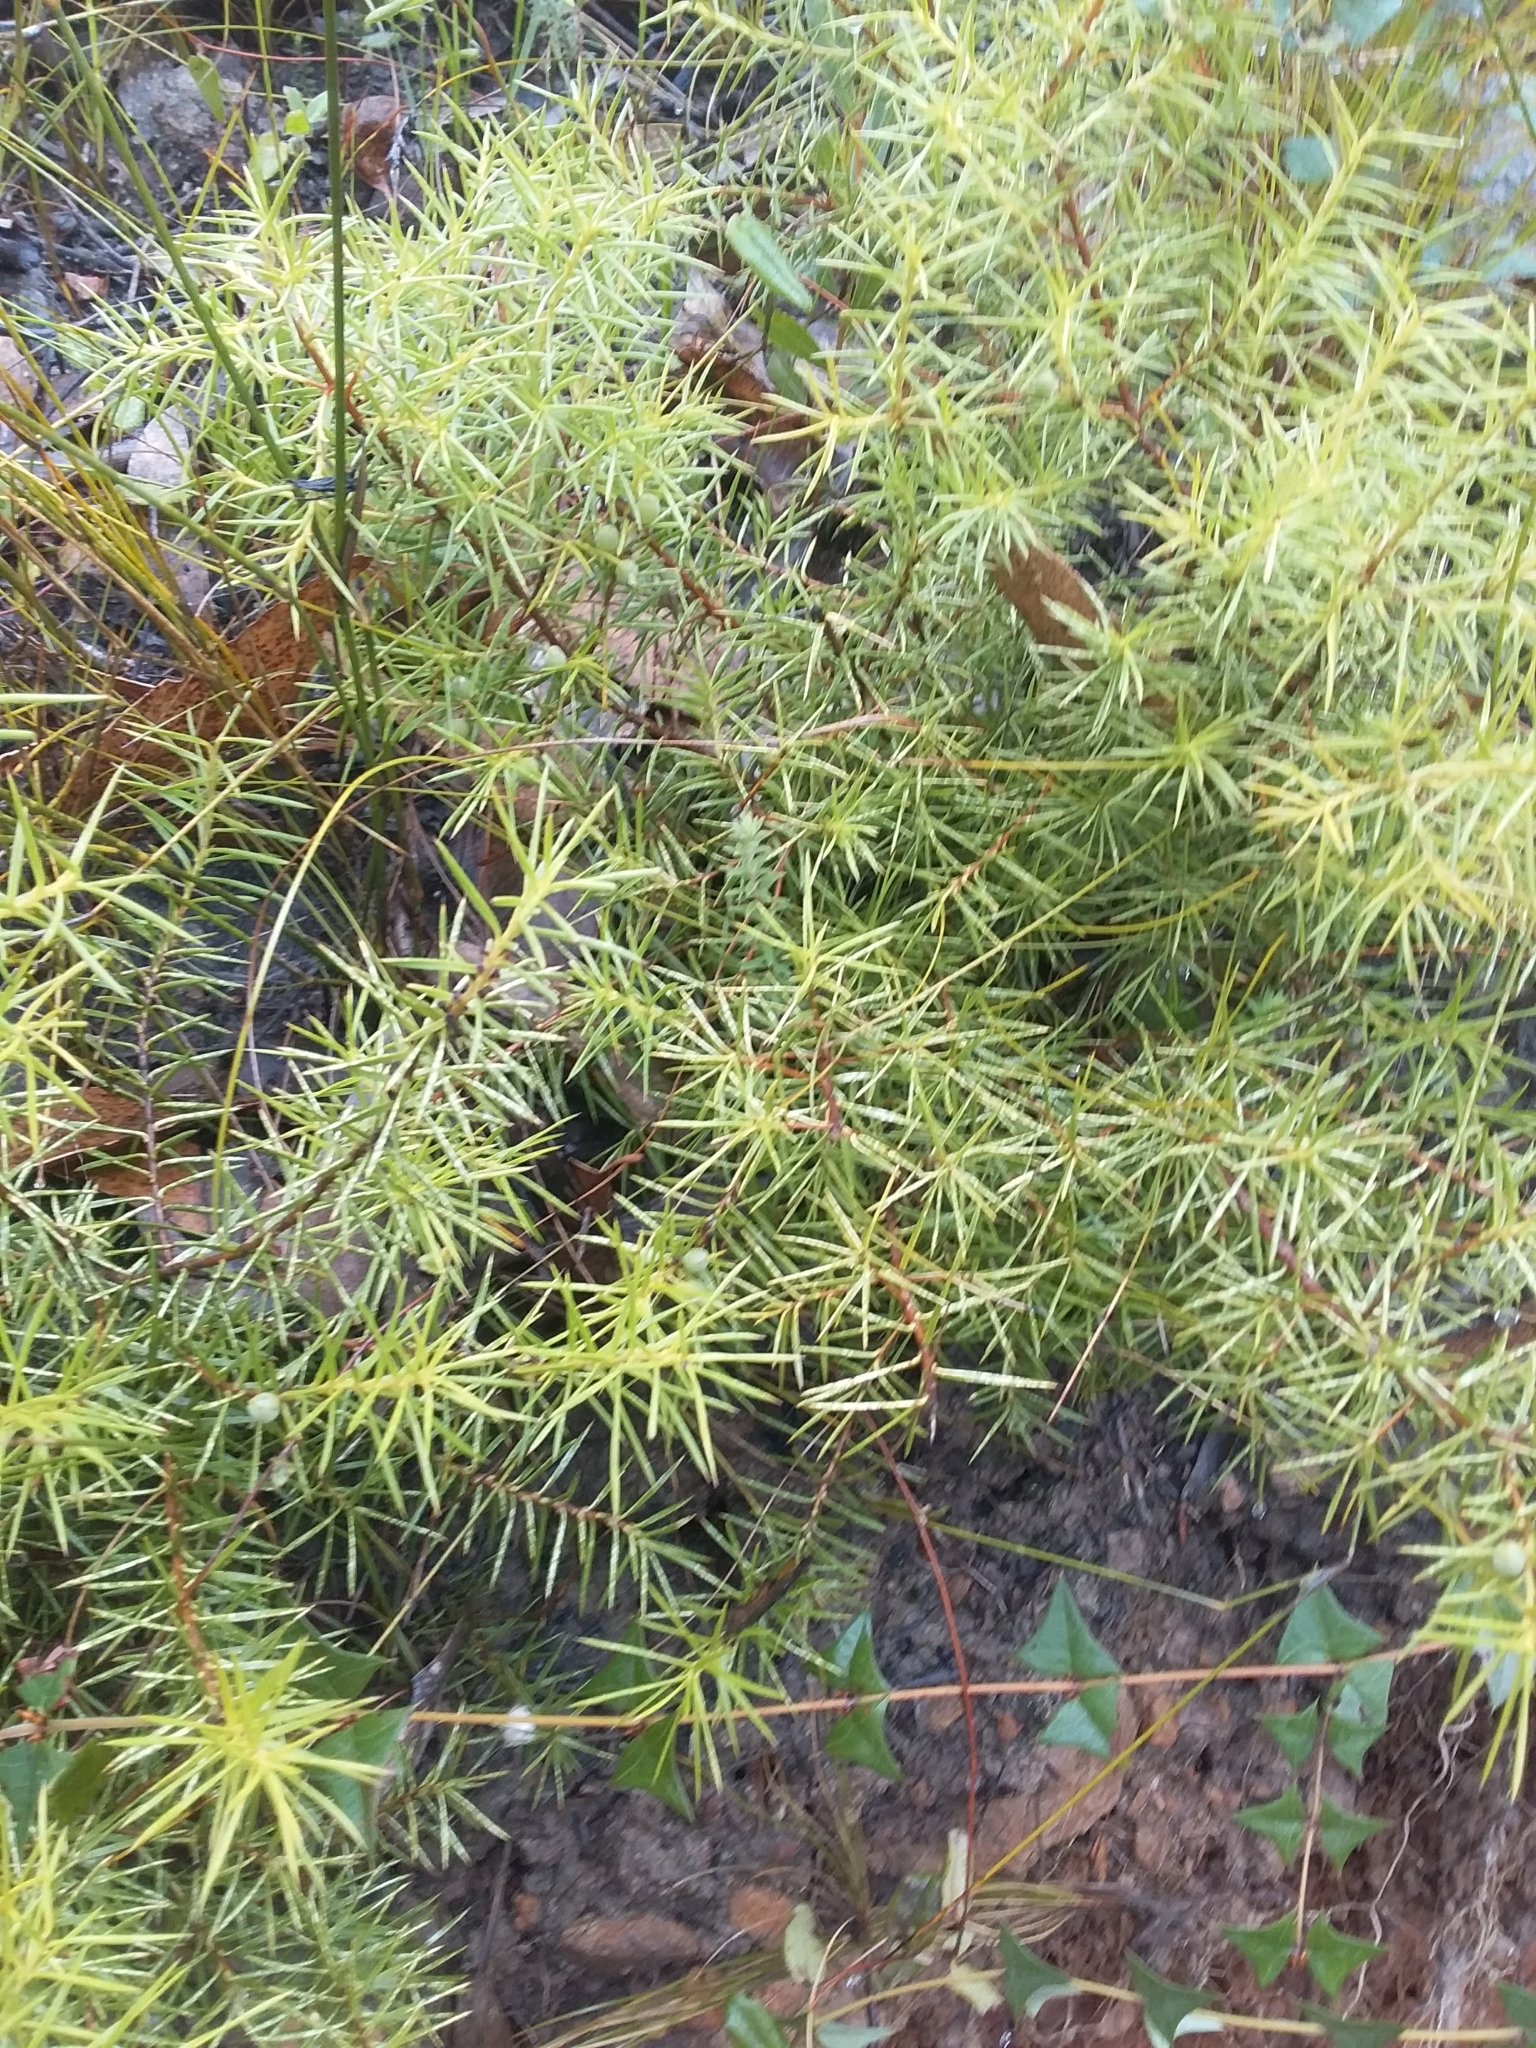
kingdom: Plantae
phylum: Tracheophyta
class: Magnoliopsida
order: Proteales
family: Proteaceae
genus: Persoonia
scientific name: Persoonia juniperina
